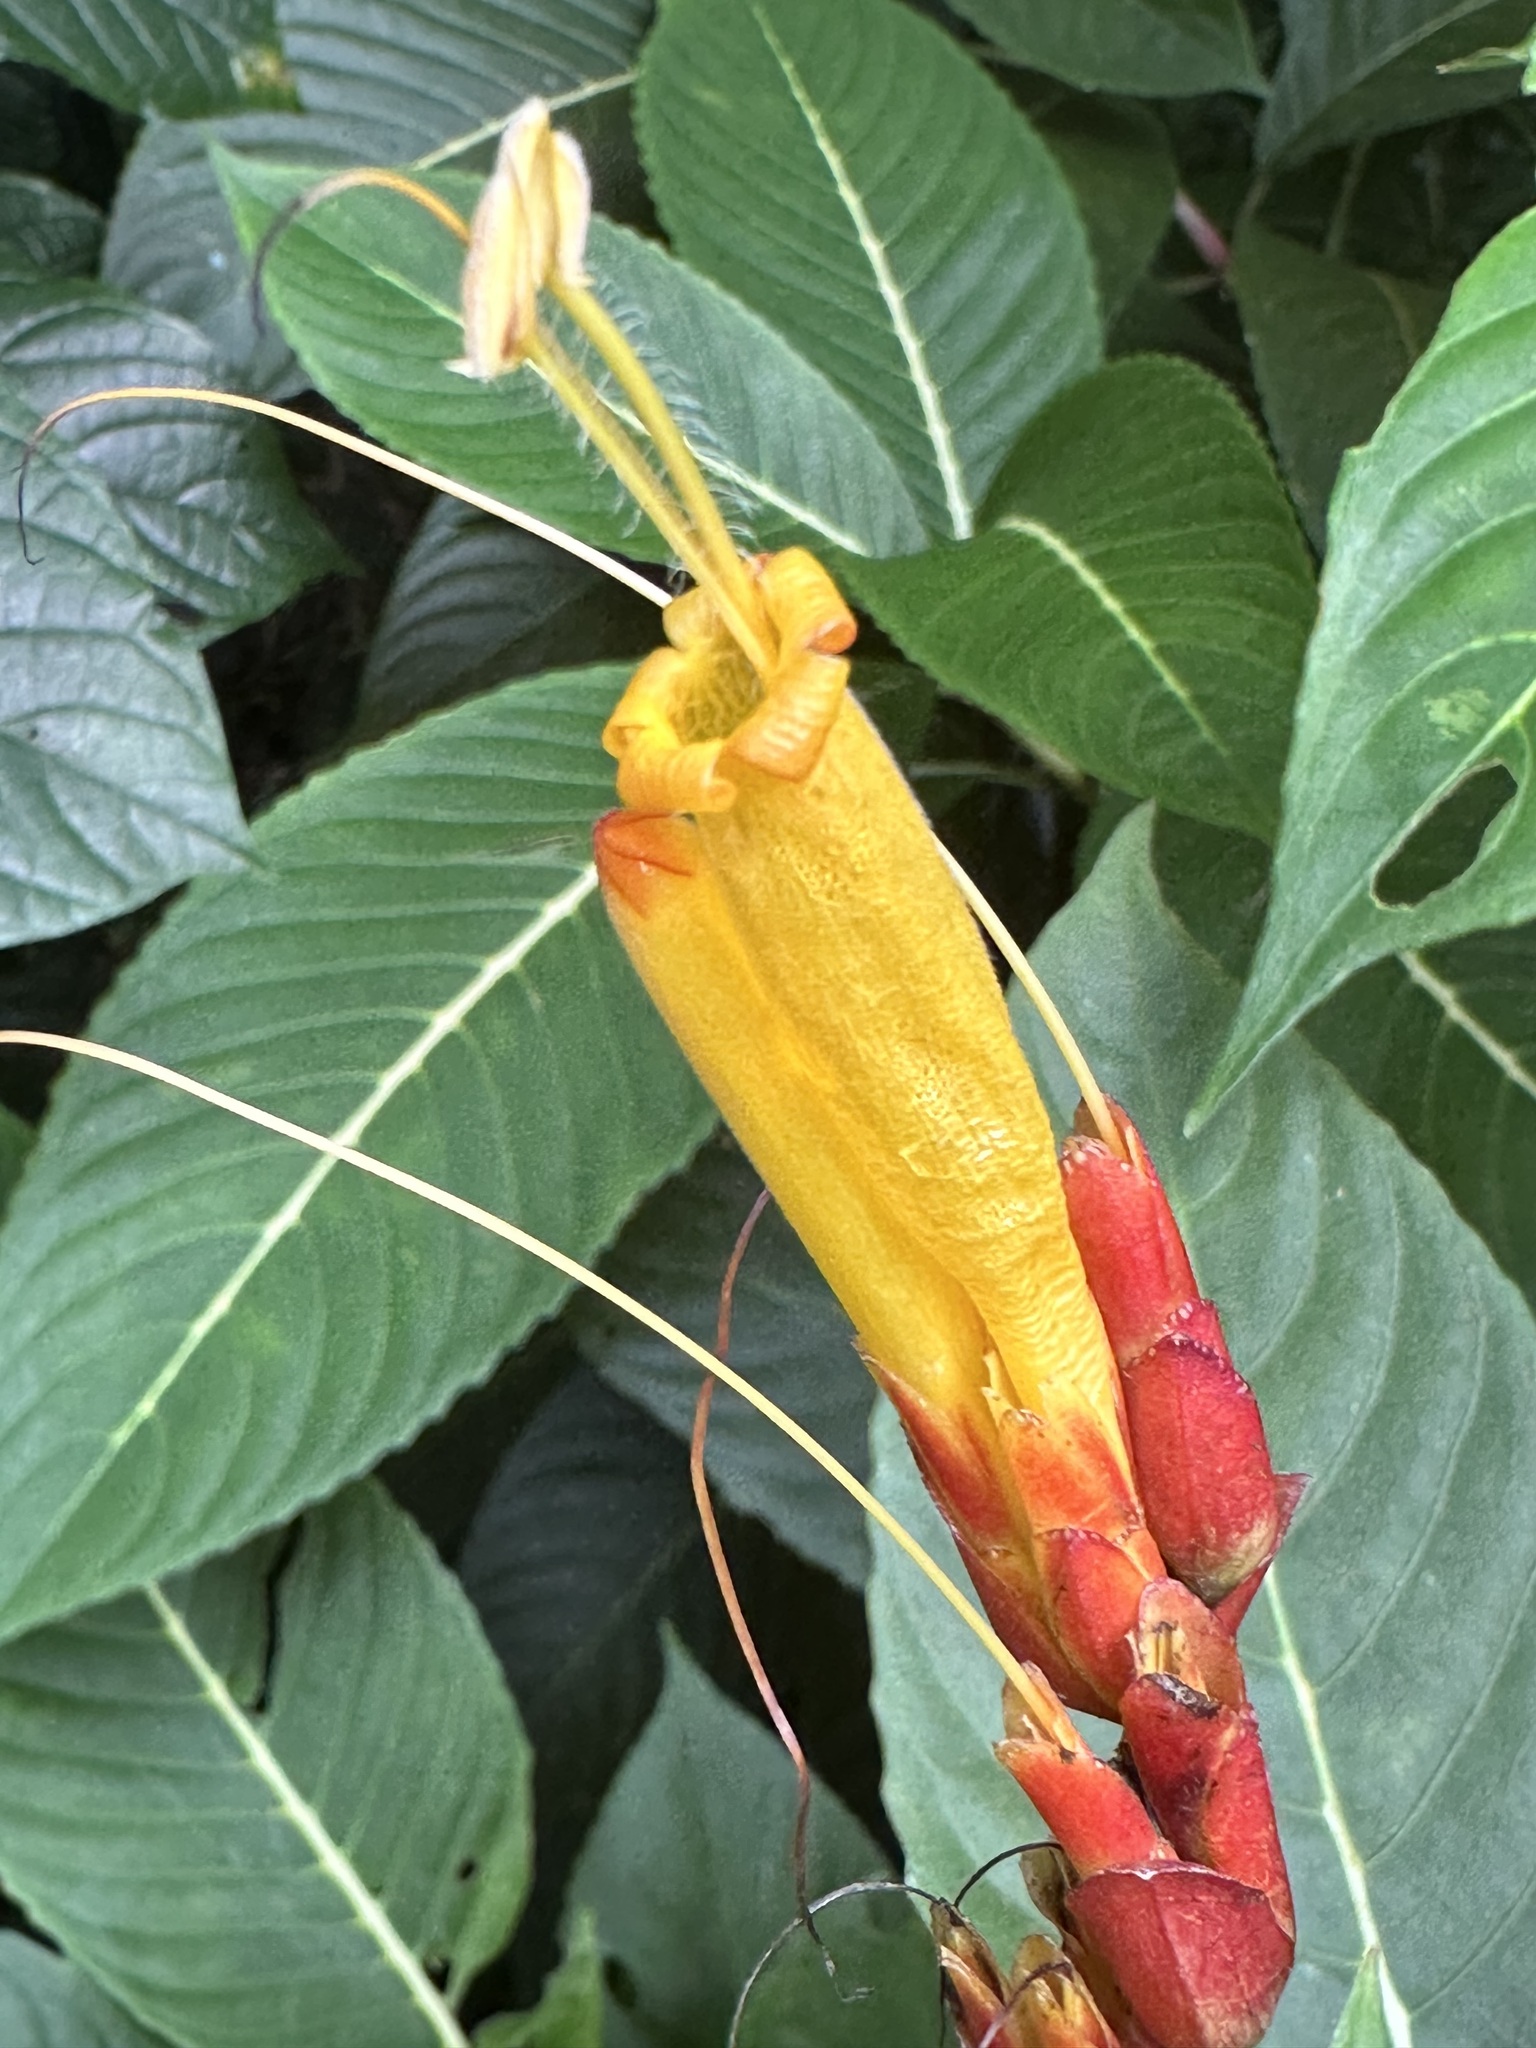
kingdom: Plantae
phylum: Tracheophyta
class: Magnoliopsida
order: Lamiales
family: Acanthaceae
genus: Sanchezia
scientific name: Sanchezia parvibracteata
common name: Sanchezia
